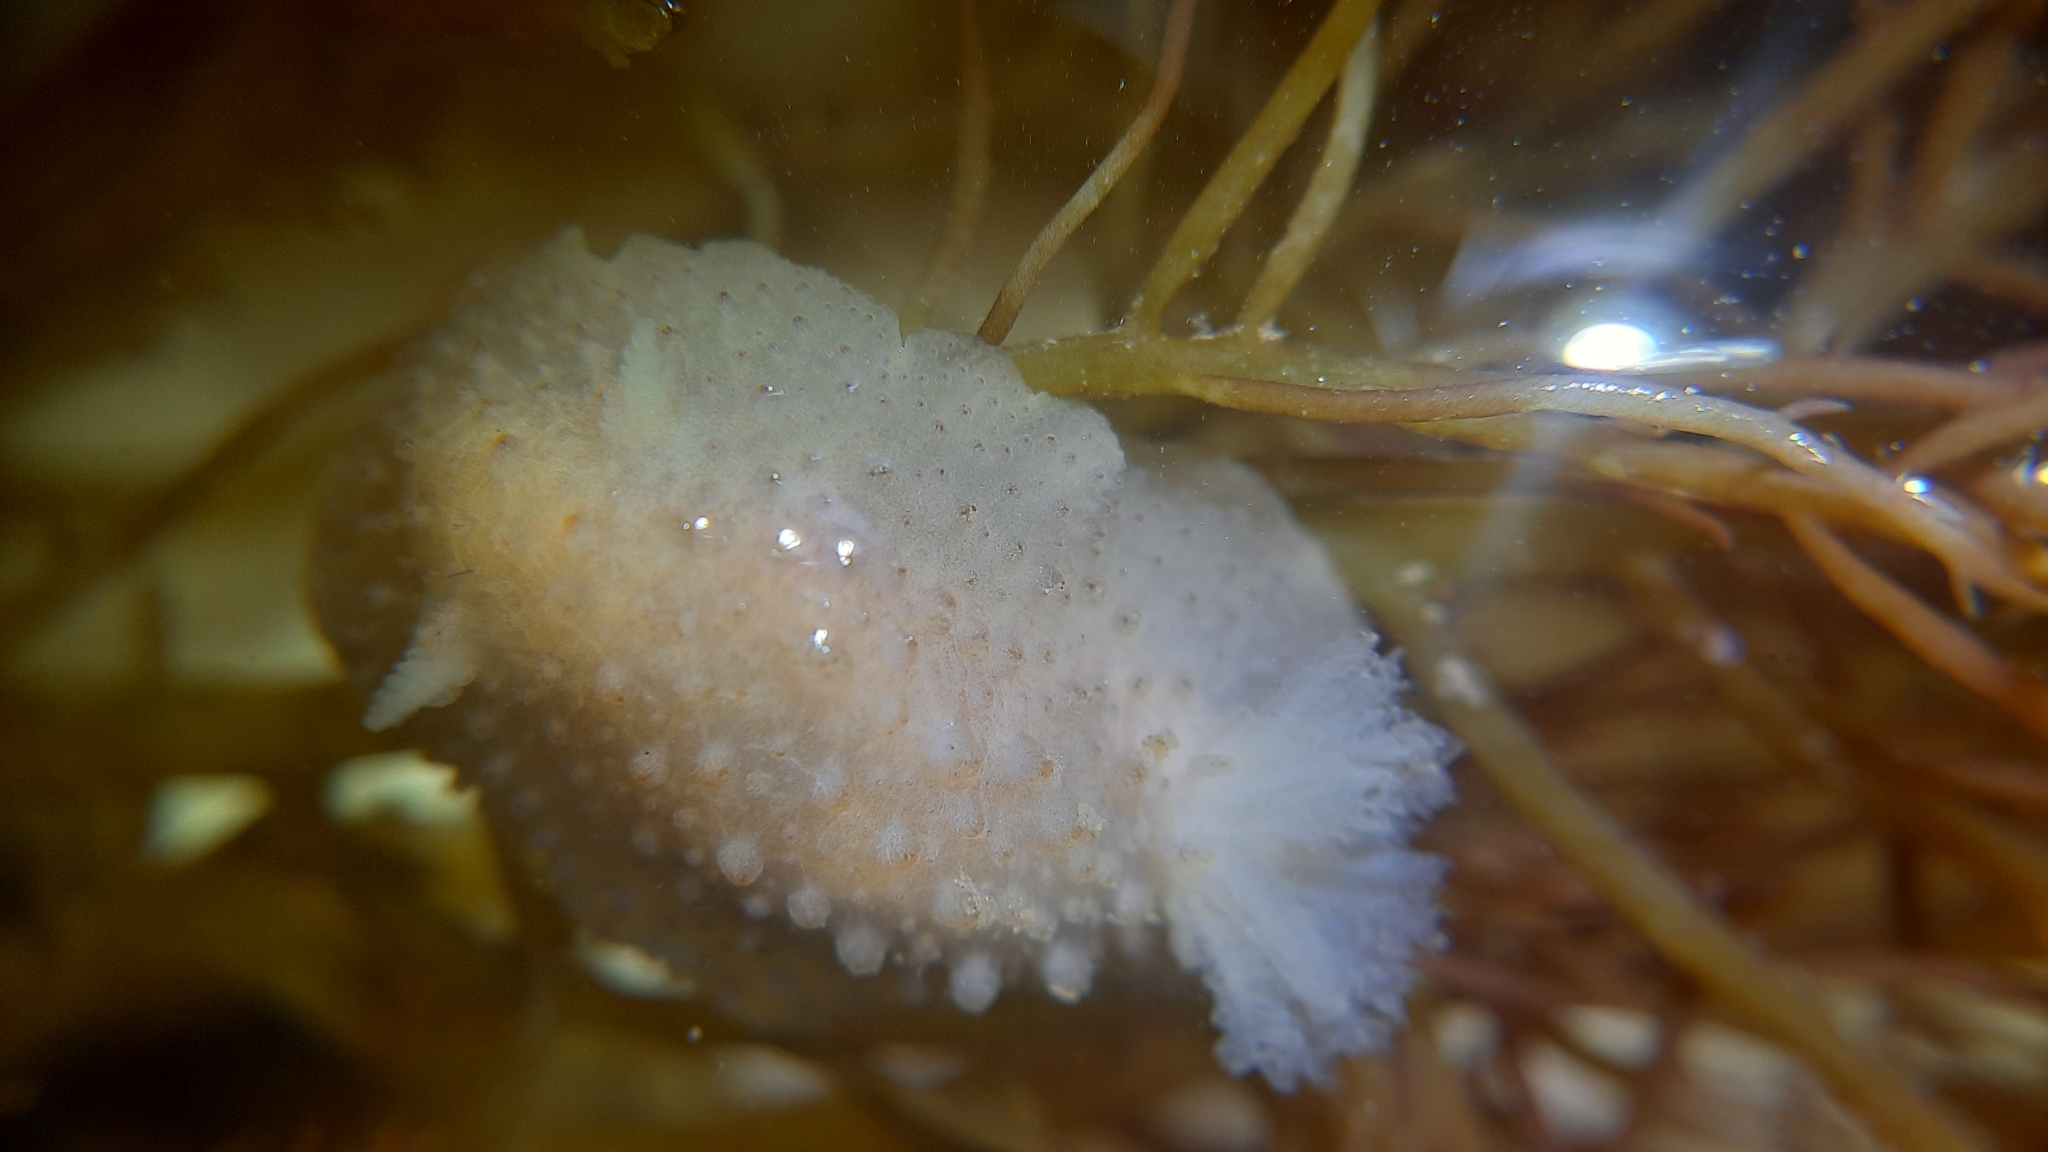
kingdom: Animalia
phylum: Mollusca
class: Gastropoda
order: Nudibranchia
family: Dorididae
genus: Doris
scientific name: Doris ocelligera
